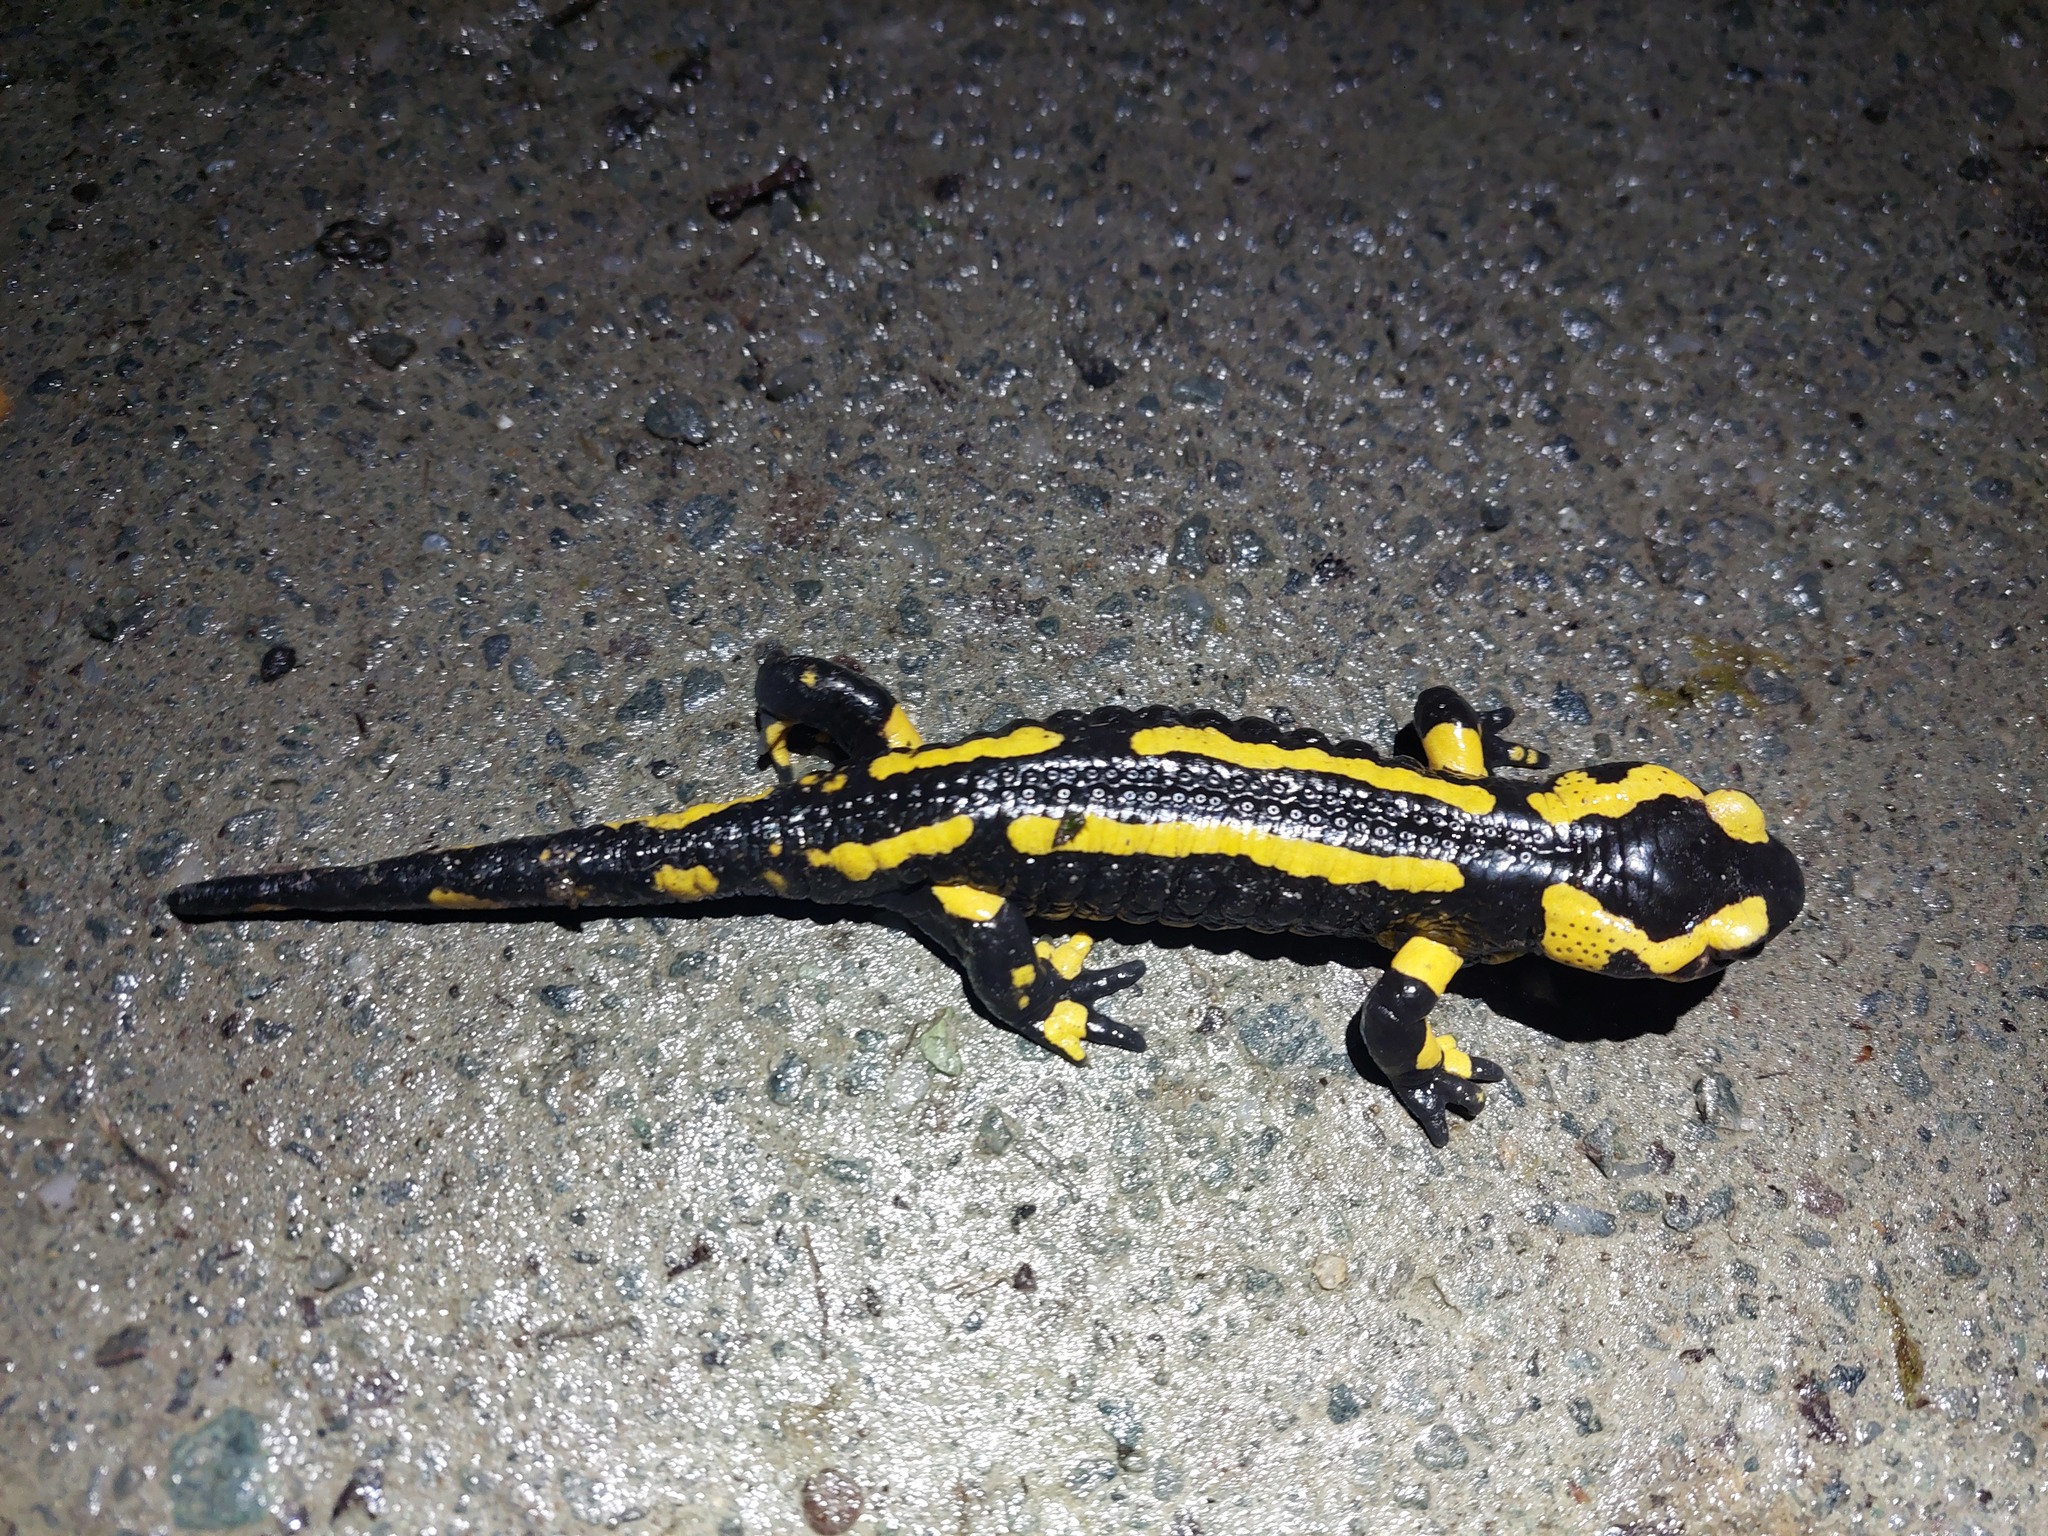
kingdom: Animalia
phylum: Chordata
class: Amphibia
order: Caudata
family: Salamandridae
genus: Salamandra
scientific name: Salamandra salamandra
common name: Fire salamander
